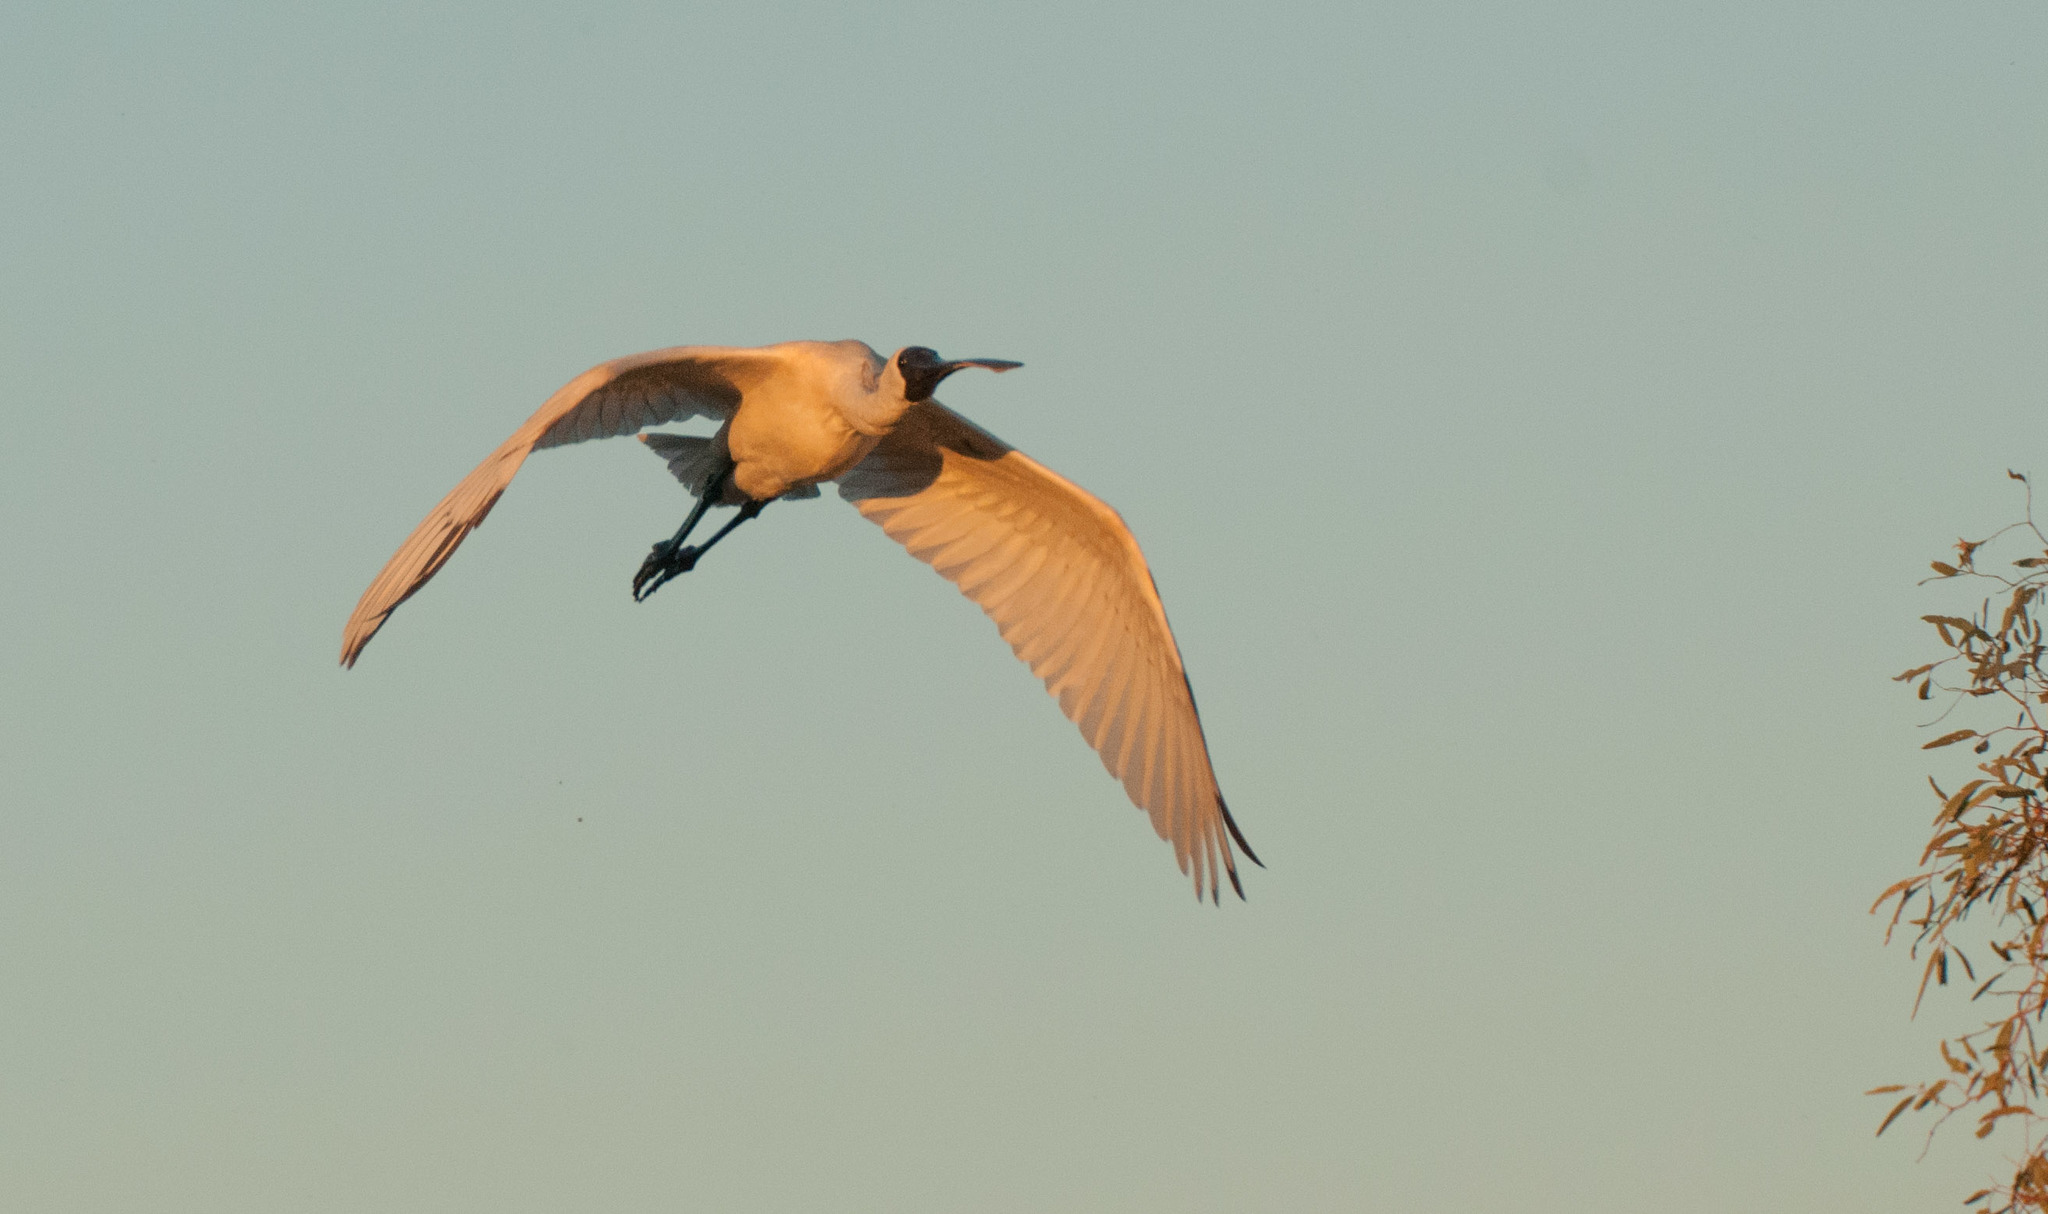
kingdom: Animalia
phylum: Chordata
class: Aves
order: Pelecaniformes
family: Threskiornithidae
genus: Platalea
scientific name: Platalea regia
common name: Royal spoonbill
